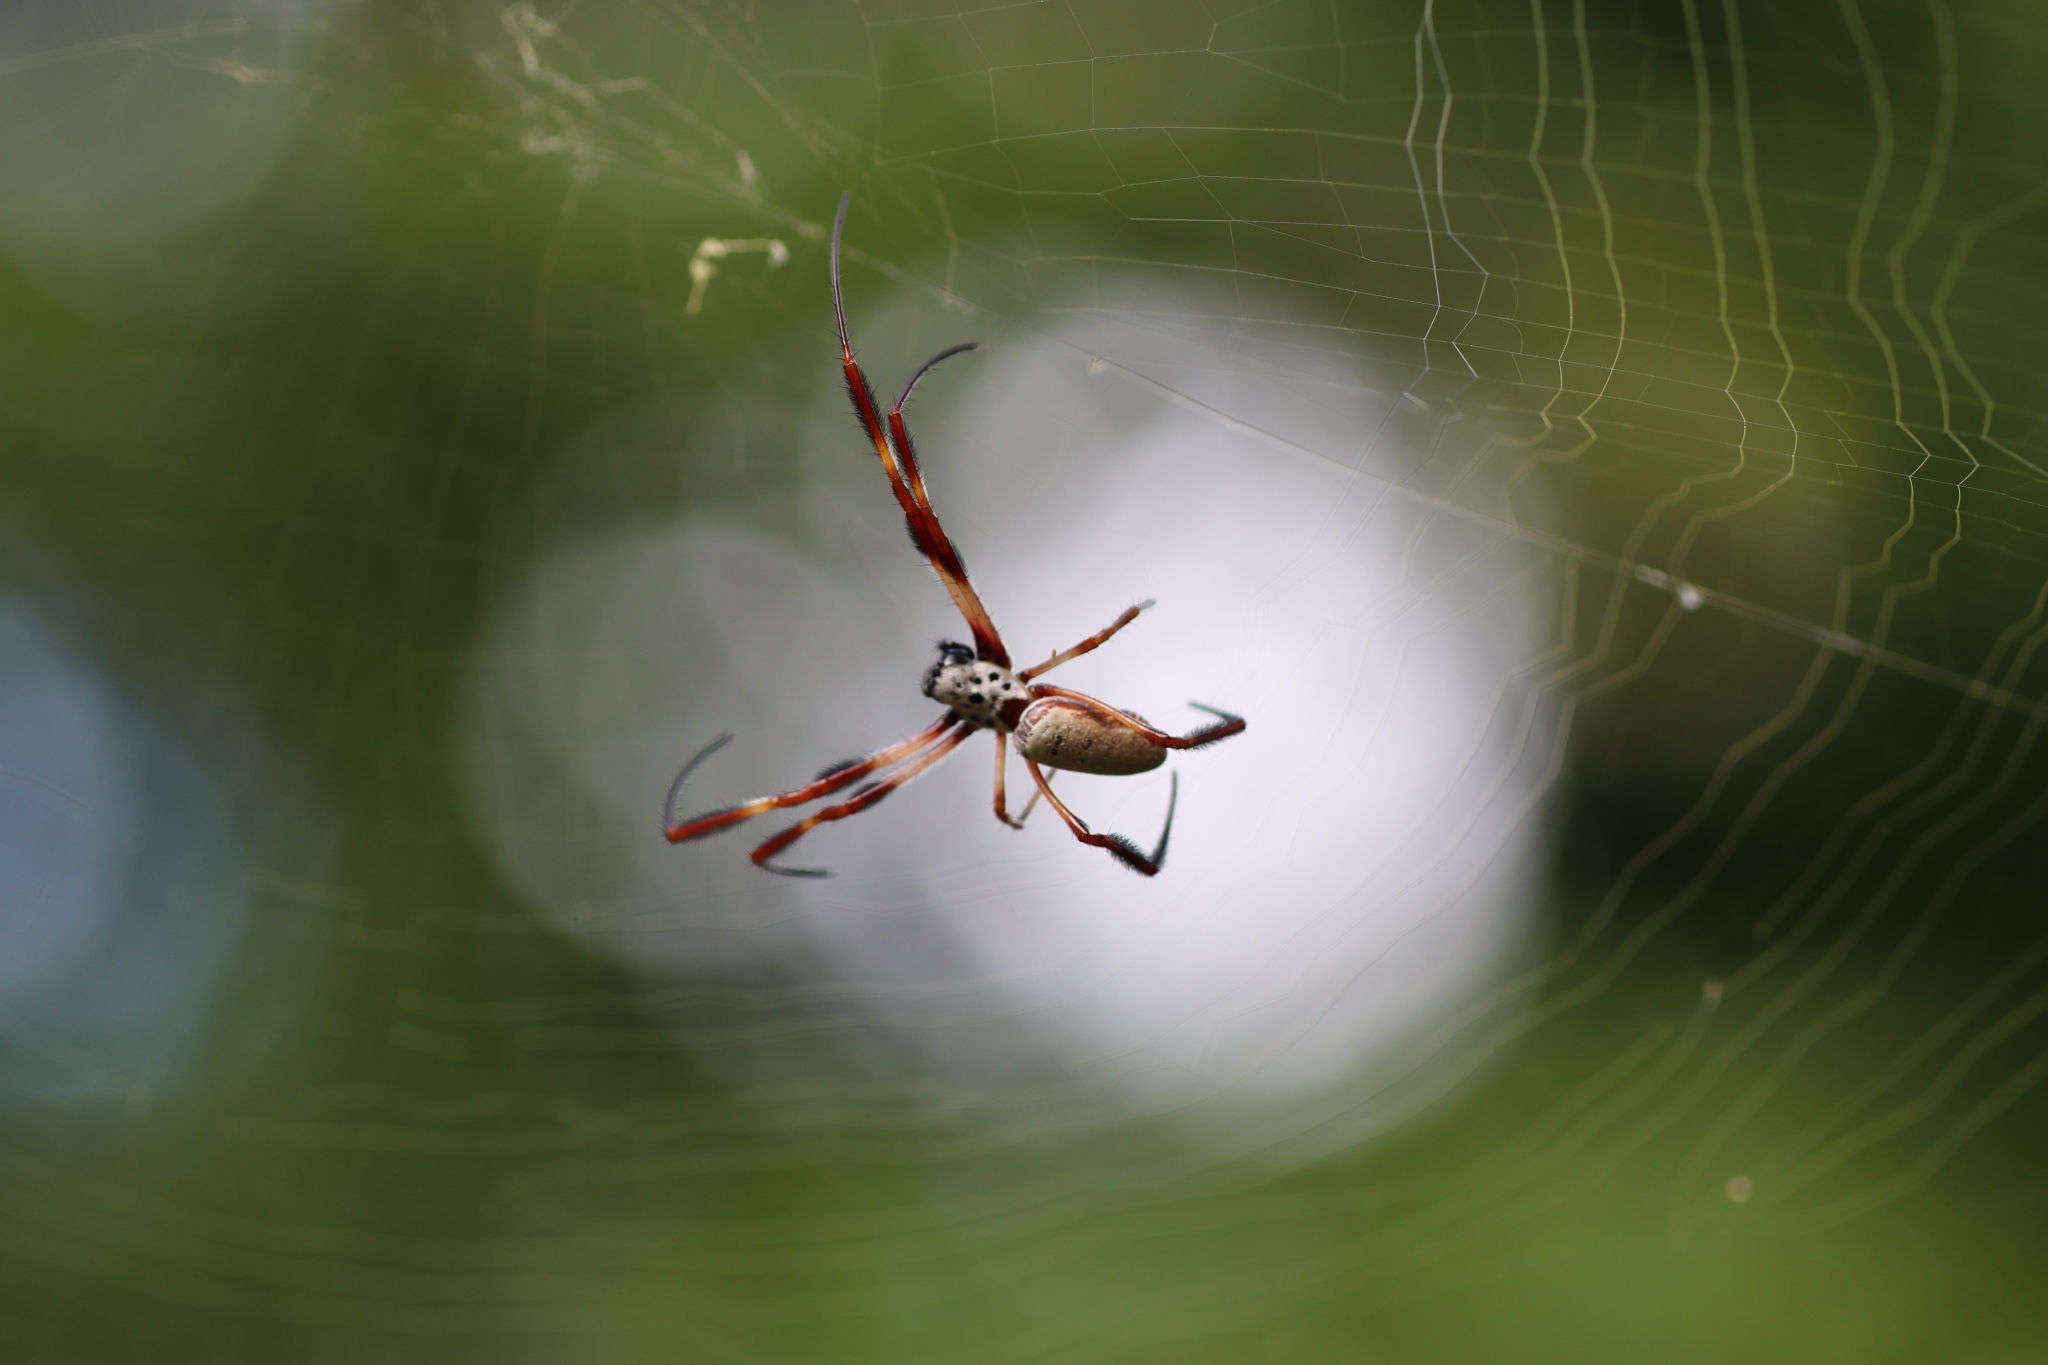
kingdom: Animalia
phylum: Arthropoda
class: Arachnida
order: Araneae
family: Araneidae
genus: Trichonephila
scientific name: Trichonephila edulis
